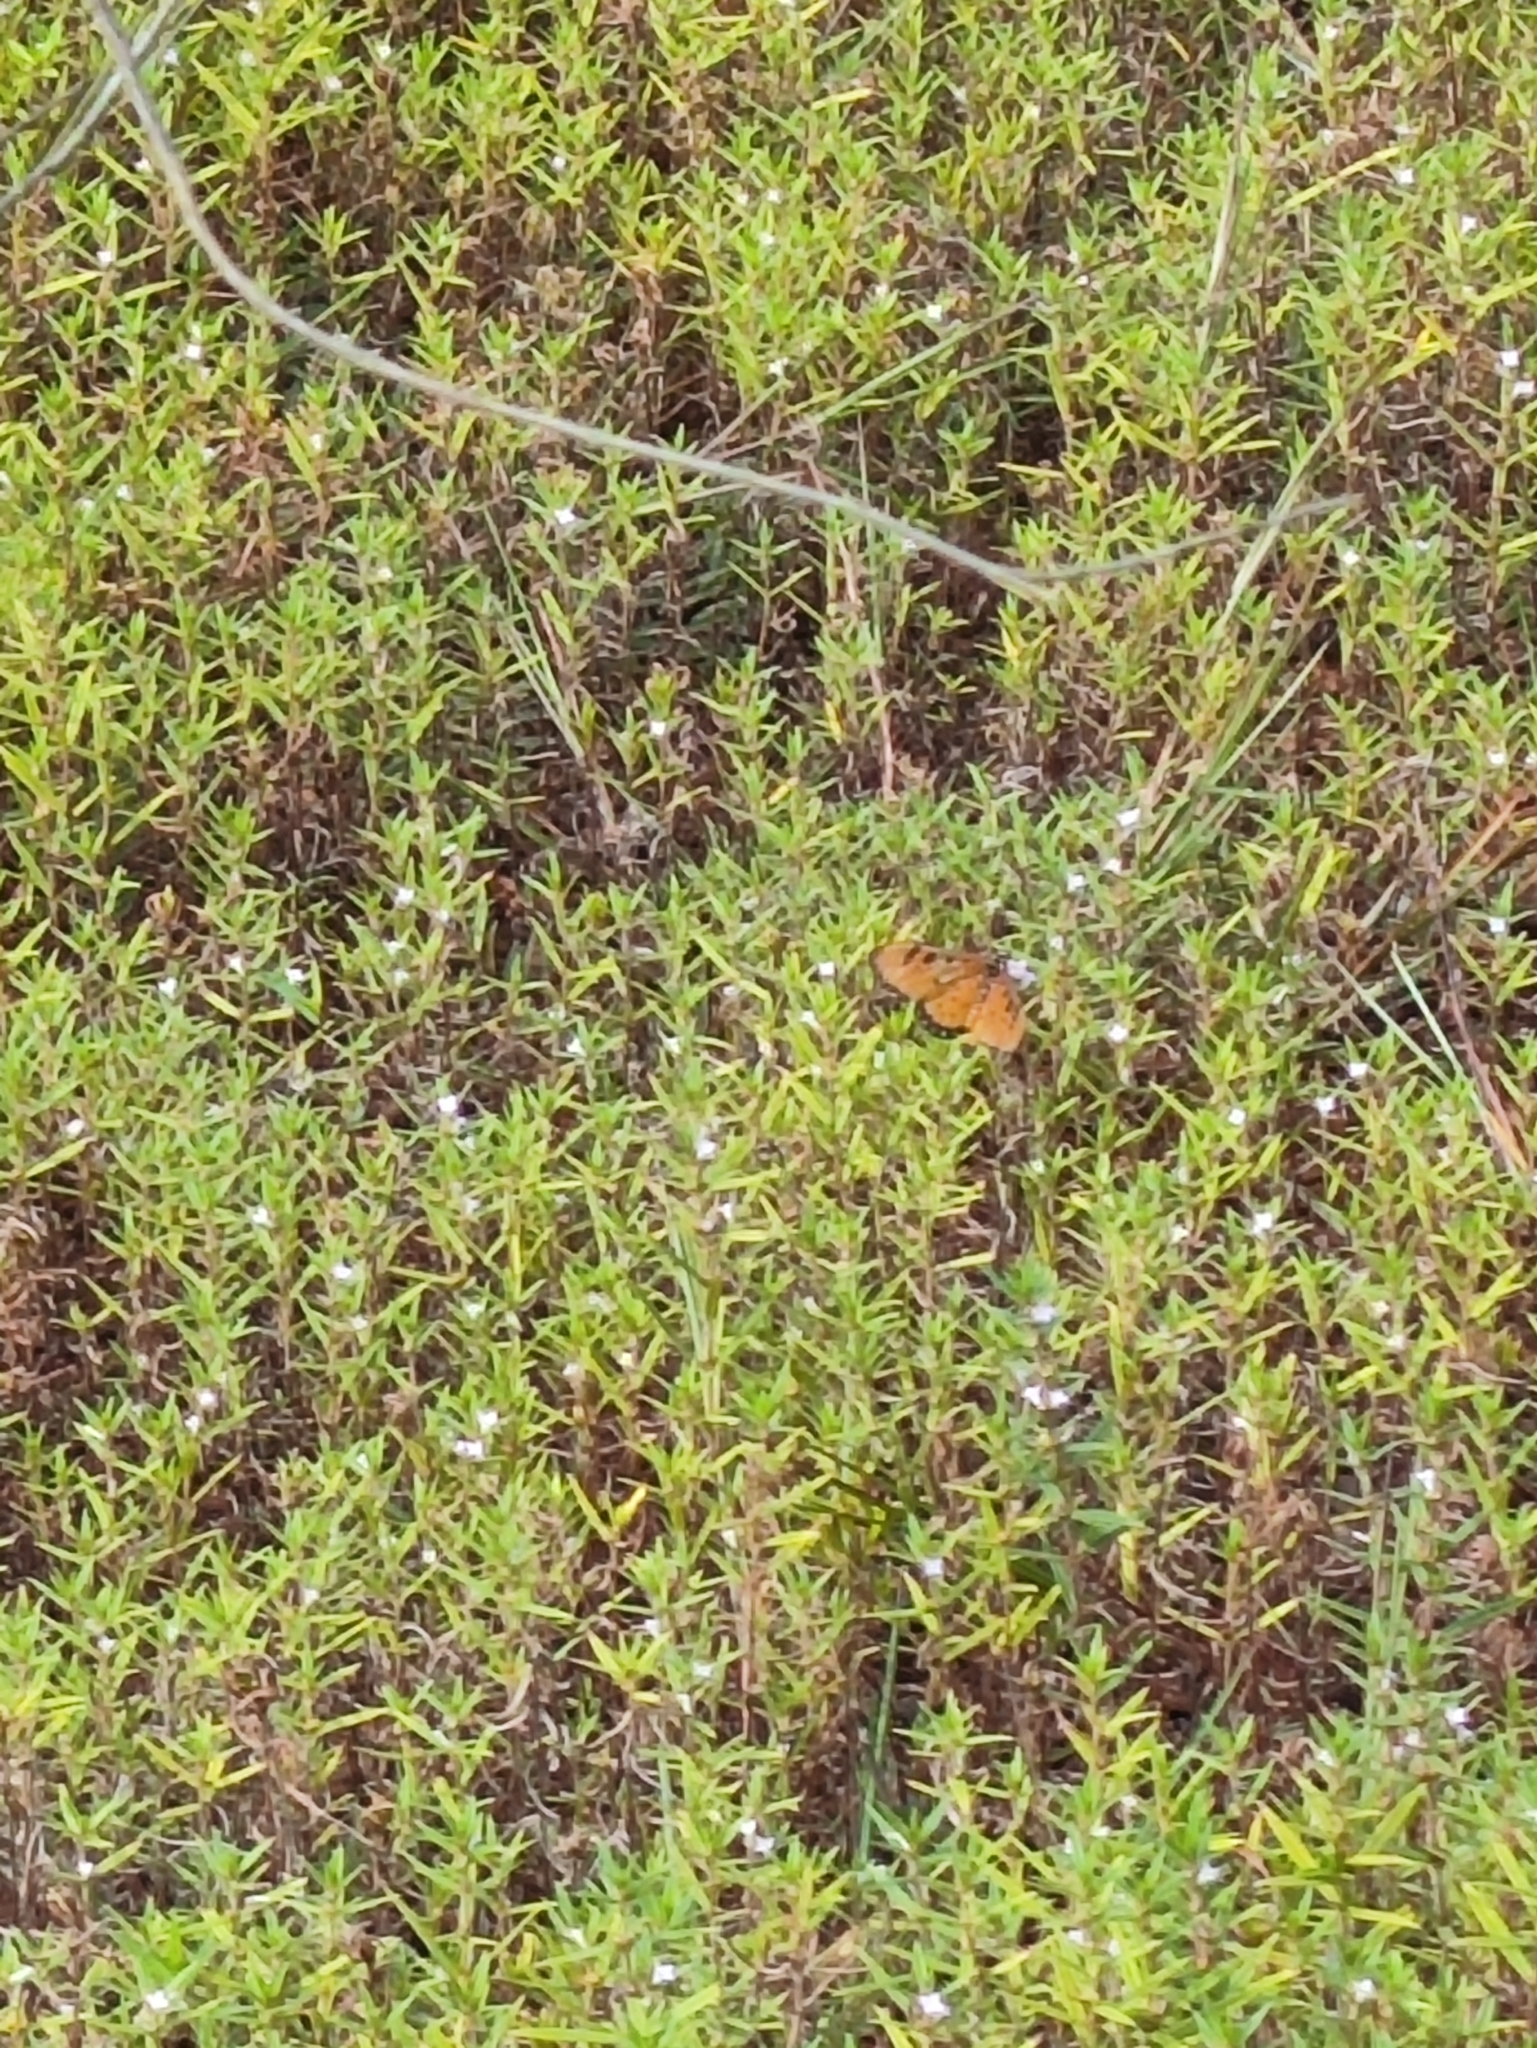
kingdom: Animalia
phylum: Arthropoda
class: Insecta
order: Lepidoptera
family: Nymphalidae
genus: Acraea
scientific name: Acraea terpsicore
